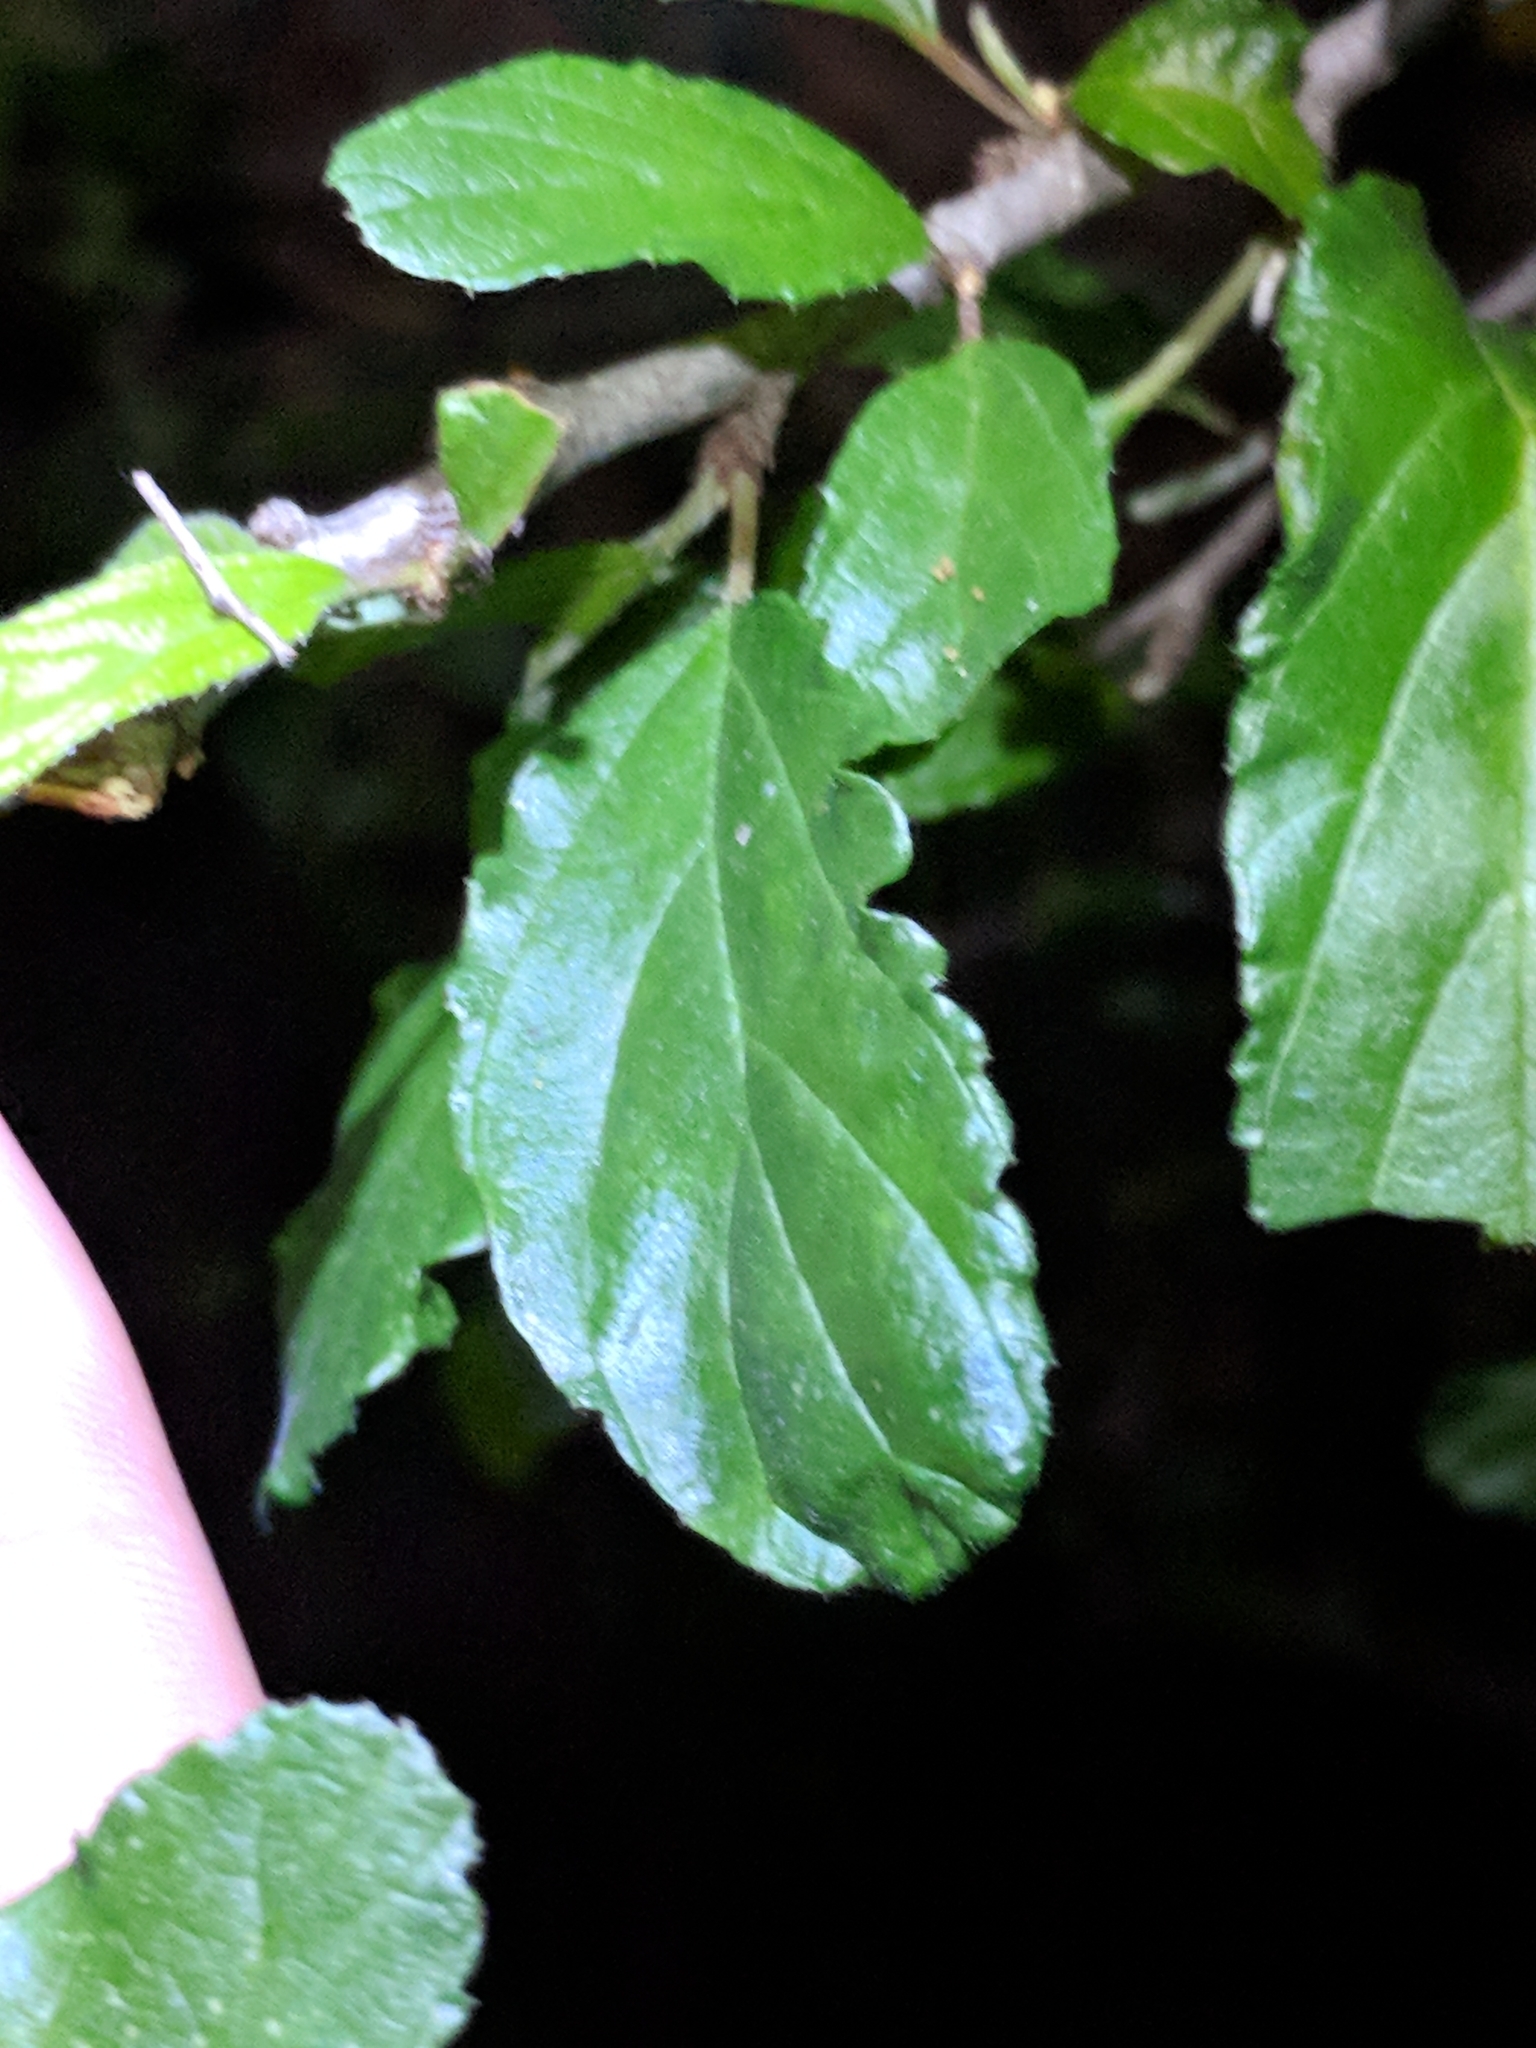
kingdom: Plantae
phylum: Tracheophyta
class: Magnoliopsida
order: Rosales
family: Rhamnaceae
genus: Colubrina
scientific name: Colubrina texensis
